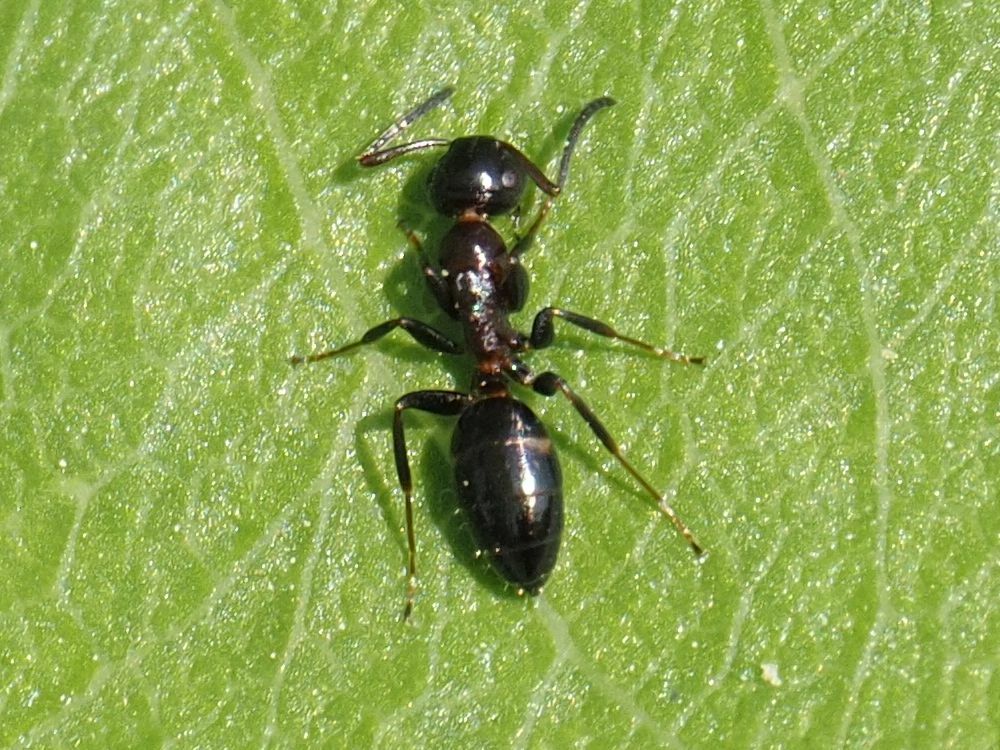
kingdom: Animalia
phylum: Arthropoda
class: Insecta
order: Hymenoptera
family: Formicidae
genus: Camponotus
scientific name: Camponotus truncatus
